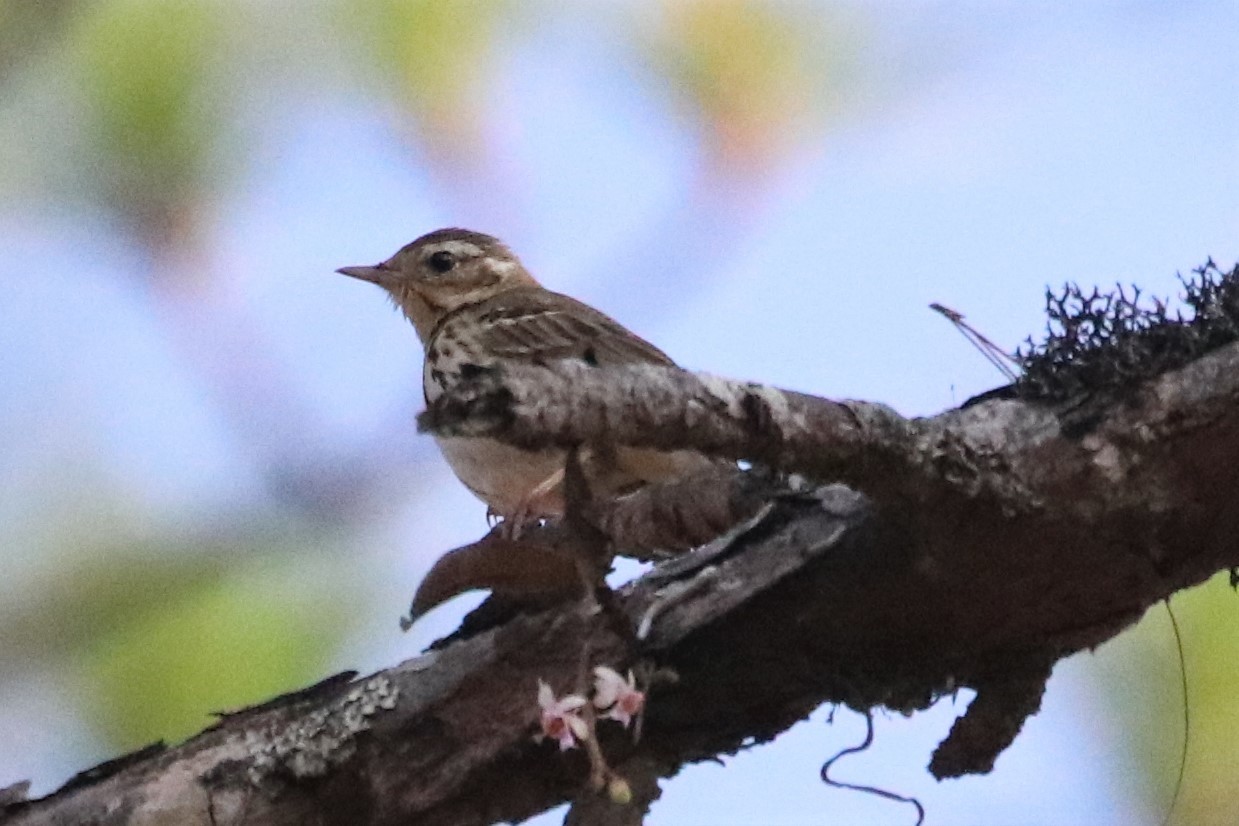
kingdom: Animalia
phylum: Chordata
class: Aves
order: Passeriformes
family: Motacillidae
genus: Anthus
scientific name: Anthus hodgsoni
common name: Olive-backed pipit
